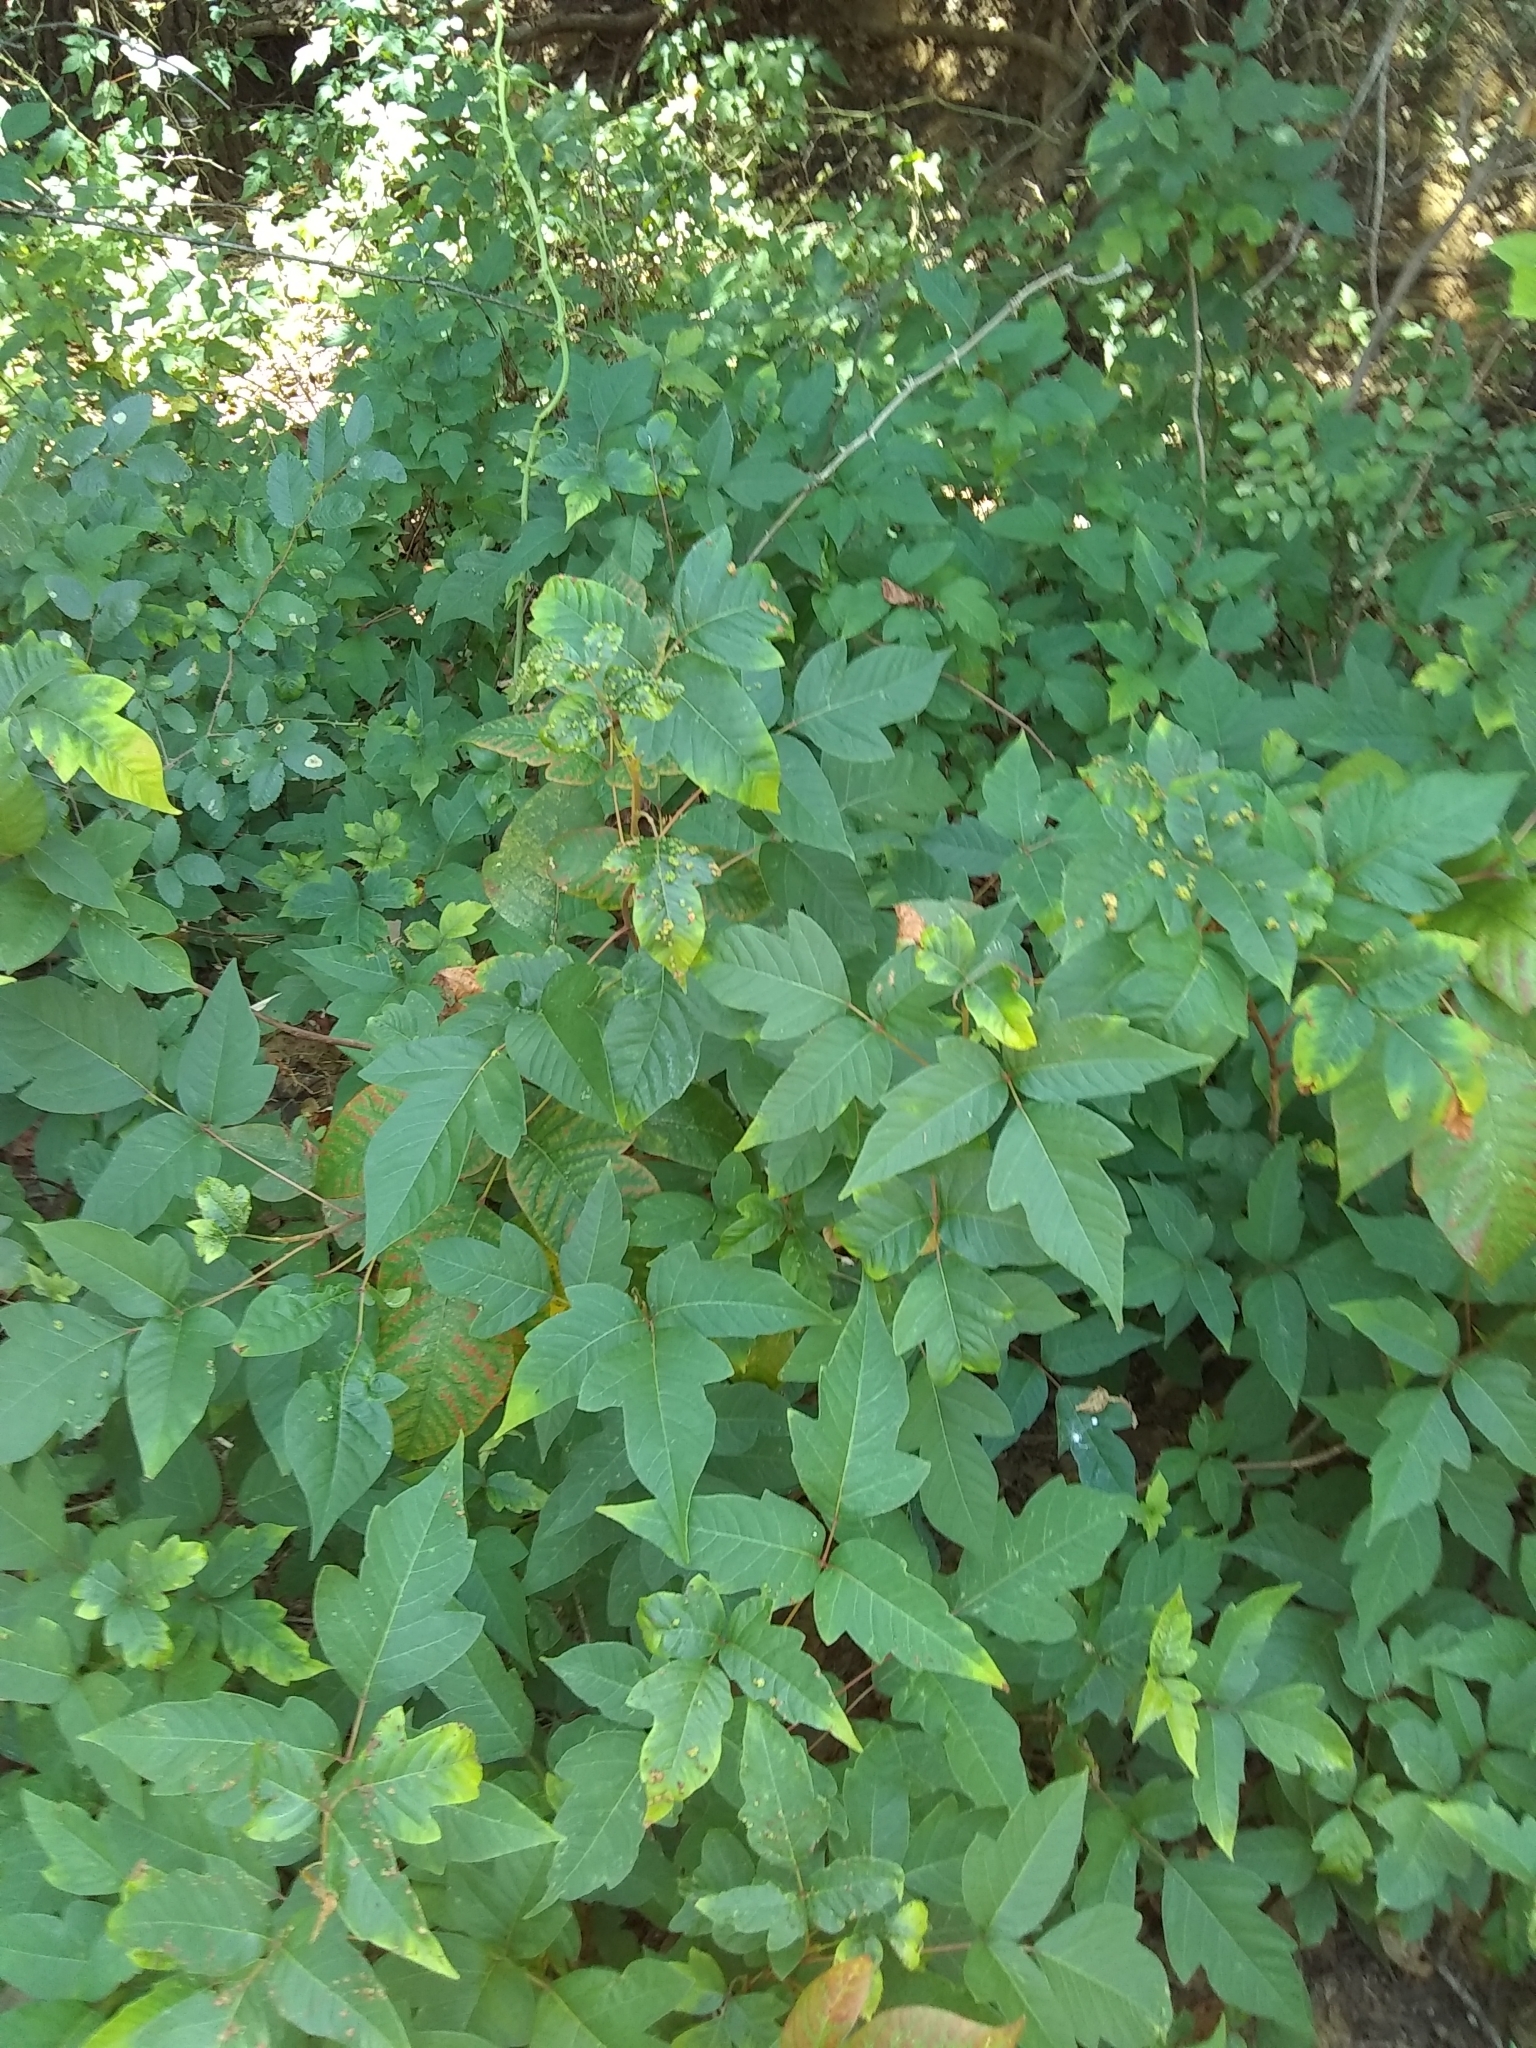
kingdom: Plantae
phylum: Tracheophyta
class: Magnoliopsida
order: Sapindales
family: Anacardiaceae
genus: Toxicodendron
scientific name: Toxicodendron radicans
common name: Poison ivy
